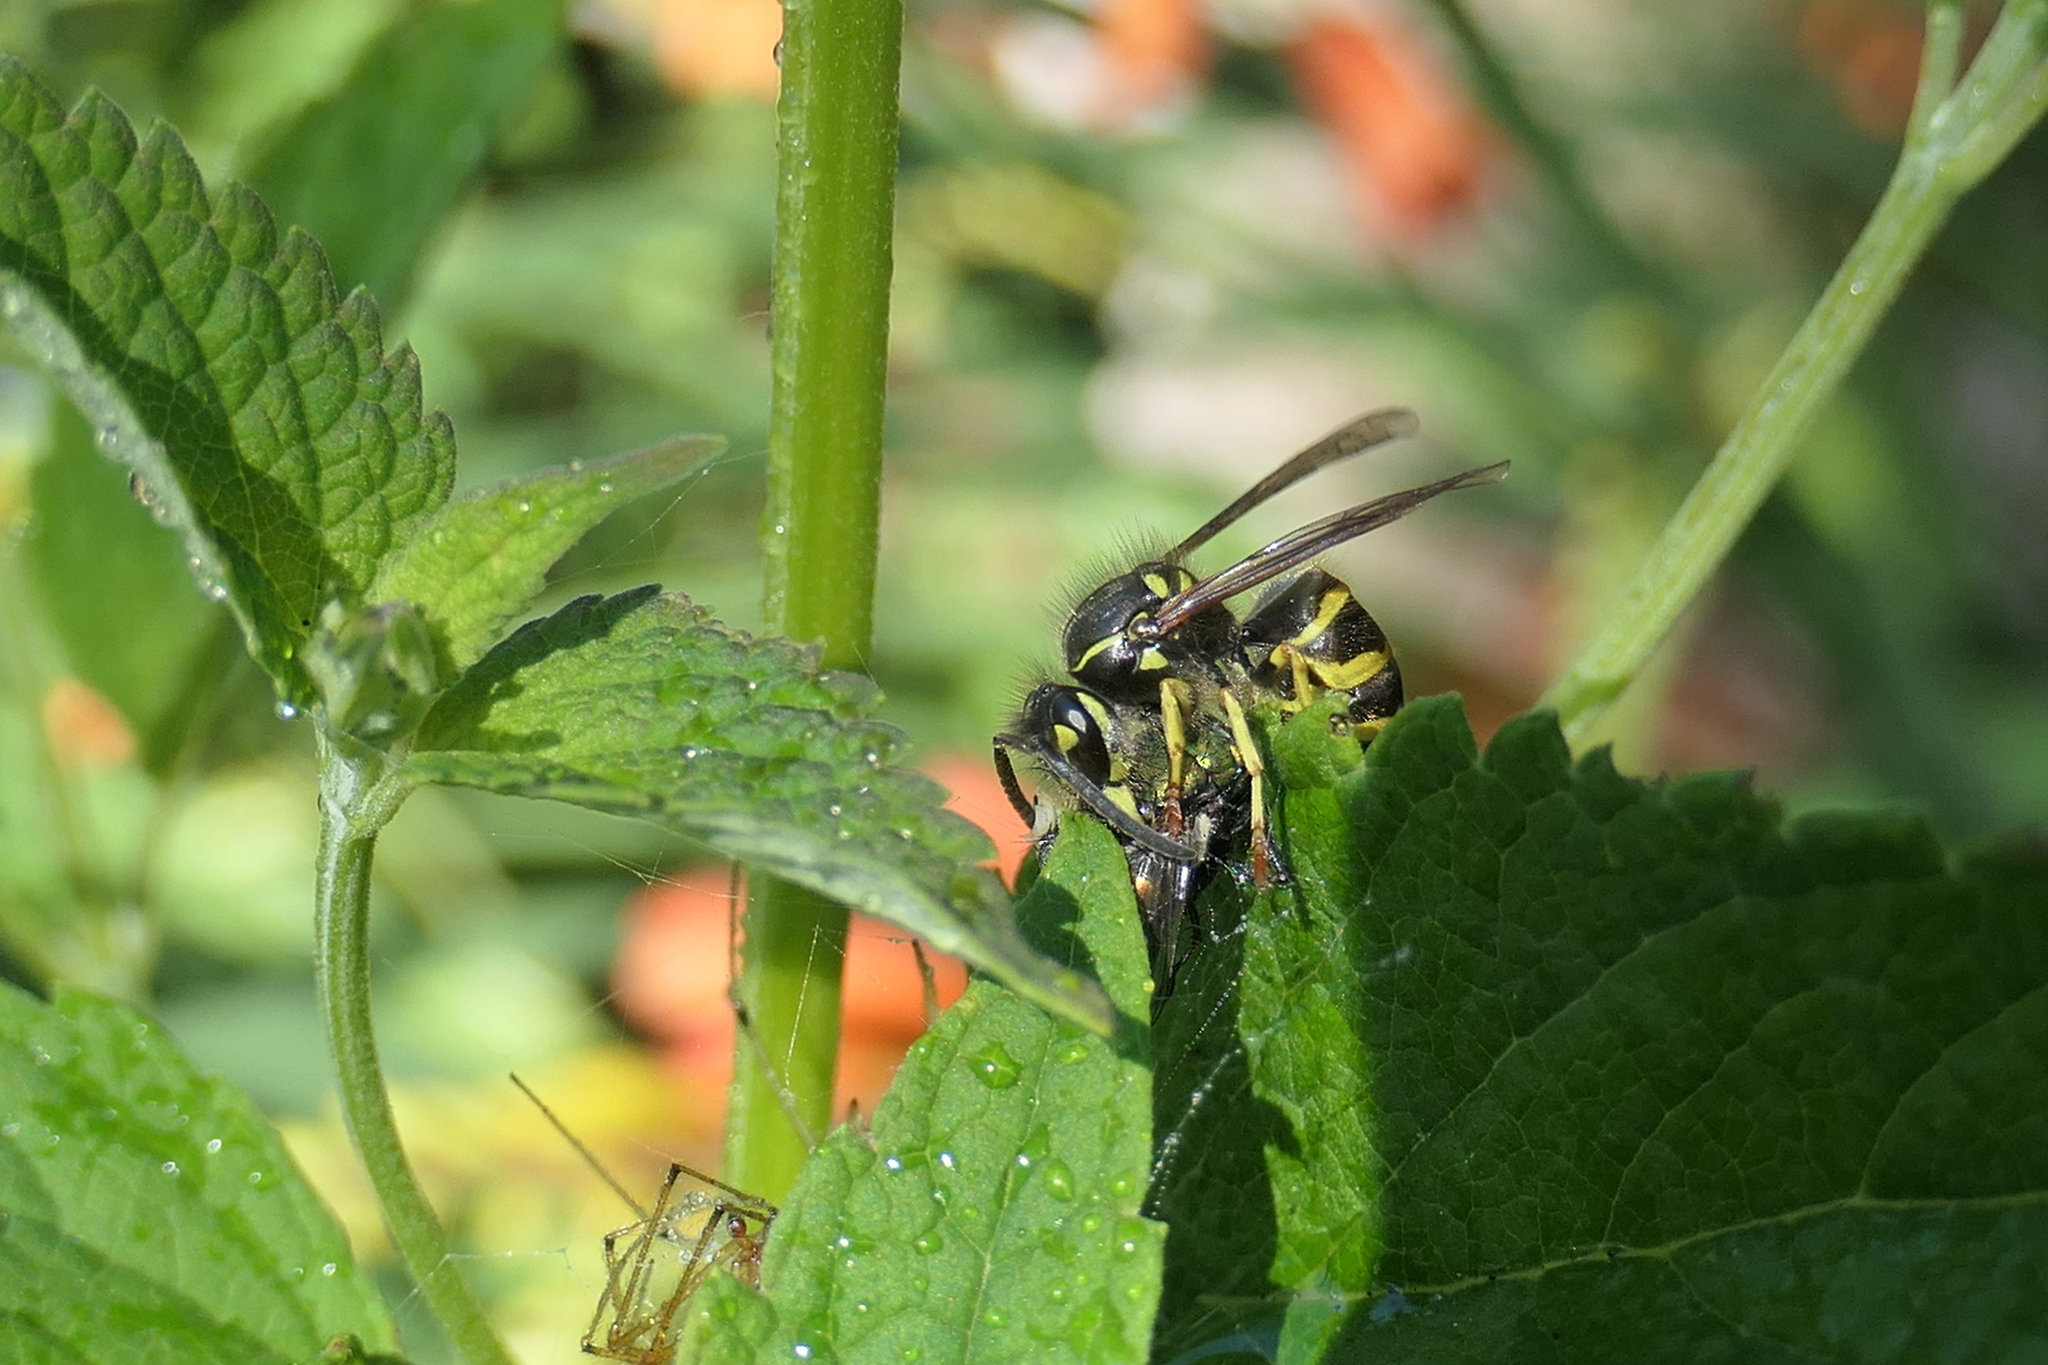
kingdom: Animalia
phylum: Arthropoda
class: Insecta
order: Hymenoptera
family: Vespidae
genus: Vespula
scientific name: Vespula alascensis
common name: Alaska yellowjacket
